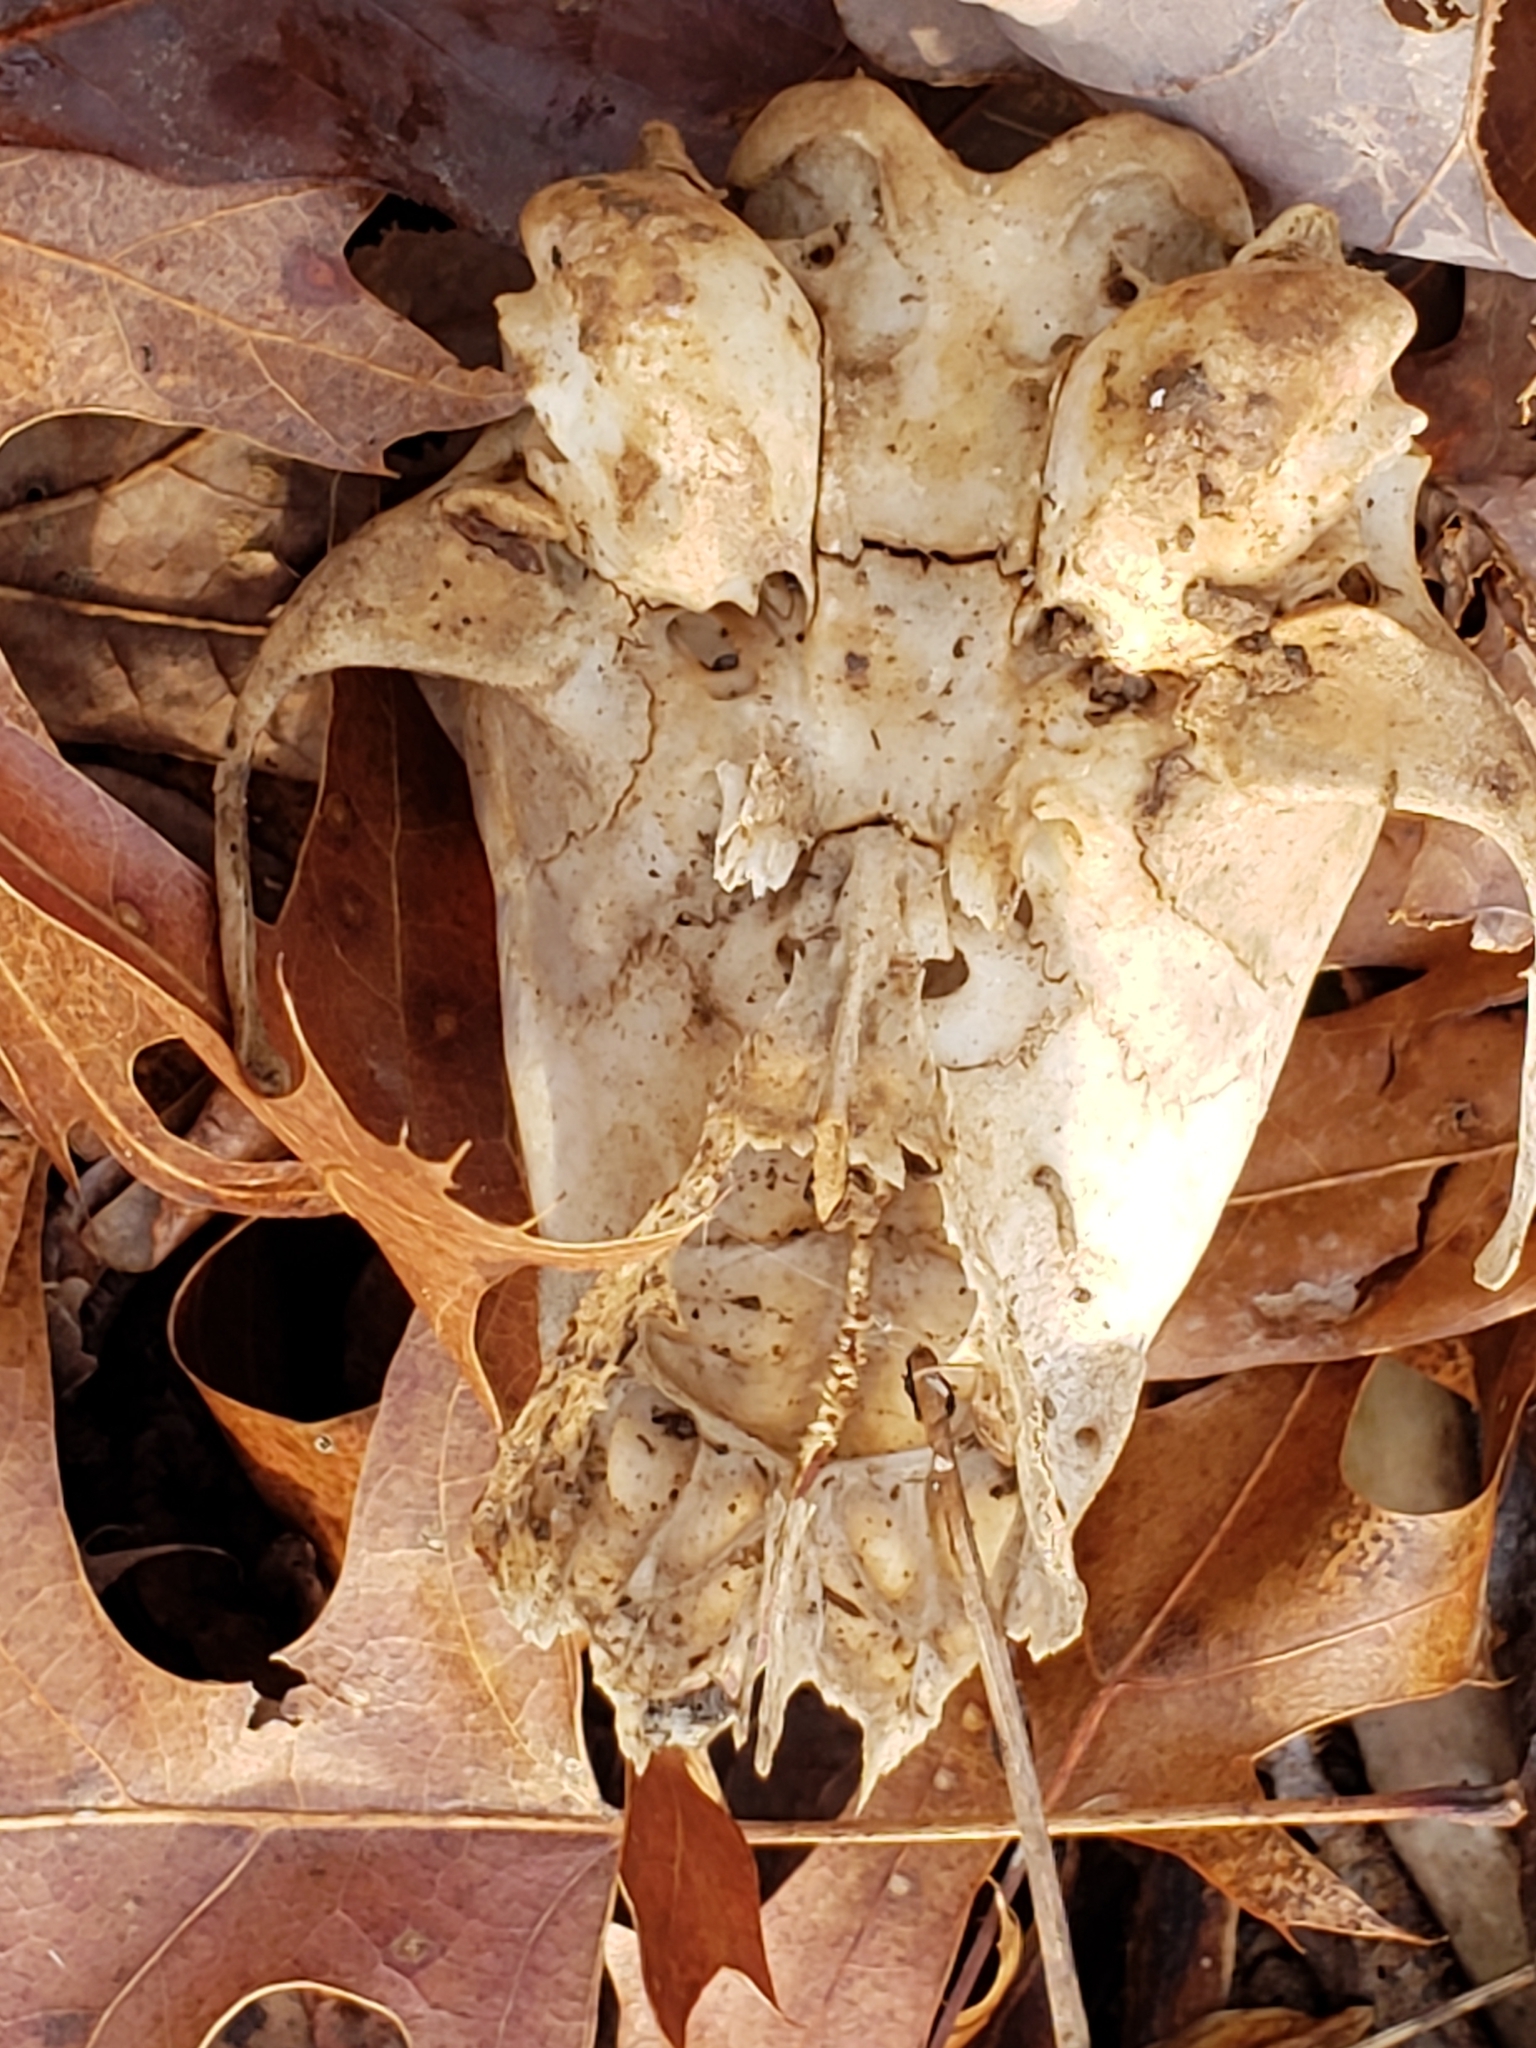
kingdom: Animalia
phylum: Chordata
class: Mammalia
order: Carnivora
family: Procyonidae
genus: Procyon
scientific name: Procyon lotor
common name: Raccoon
